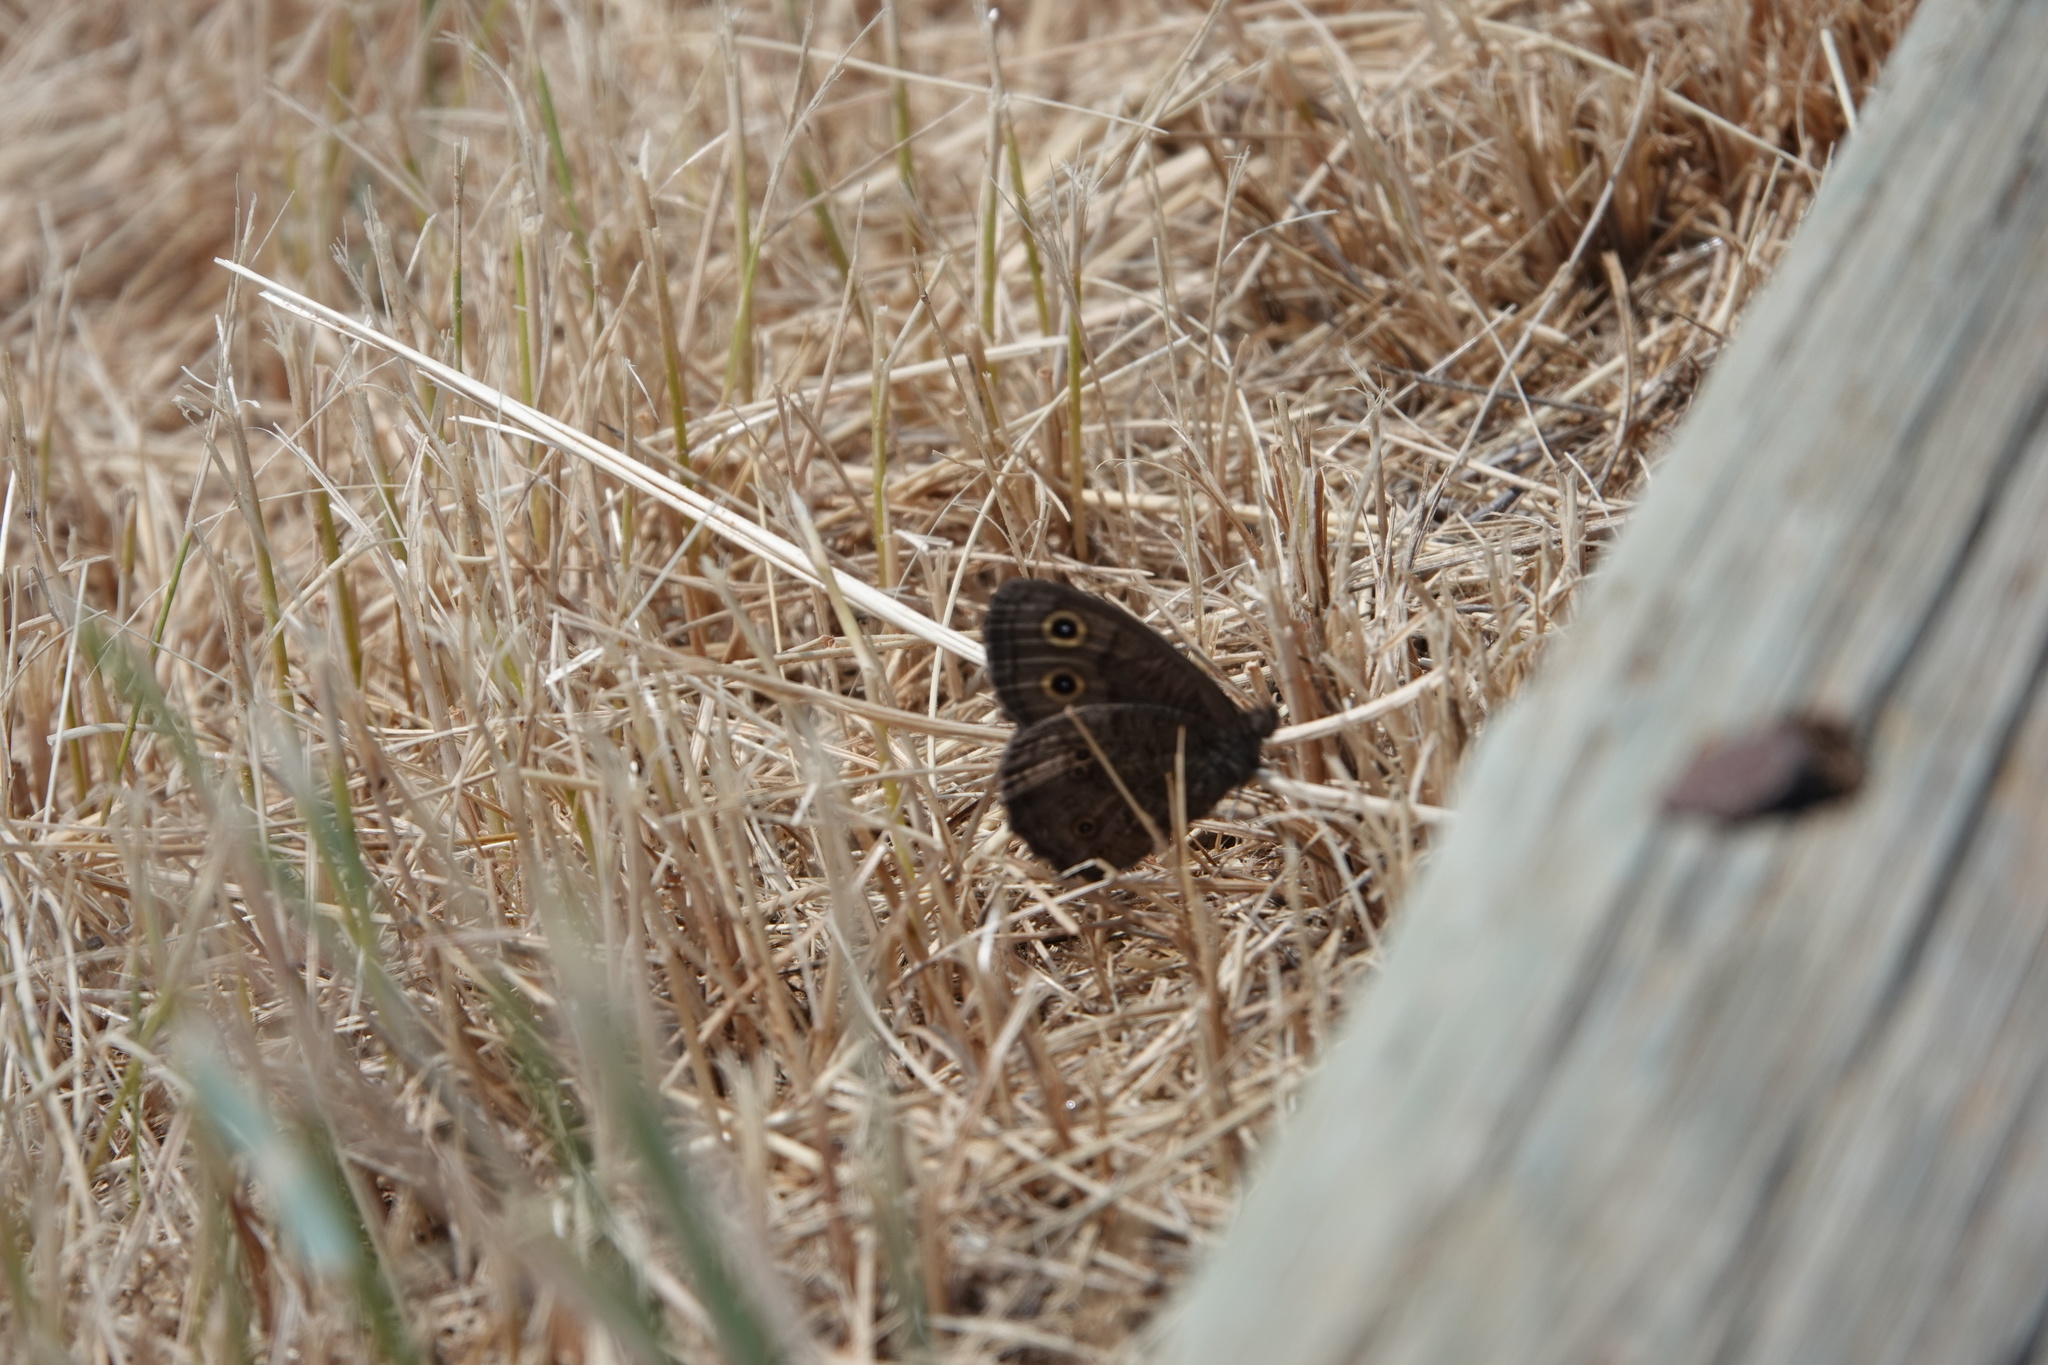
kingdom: Animalia
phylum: Arthropoda
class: Insecta
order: Lepidoptera
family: Nymphalidae
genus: Cercyonis
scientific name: Cercyonis pegala
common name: Common wood-nymph
